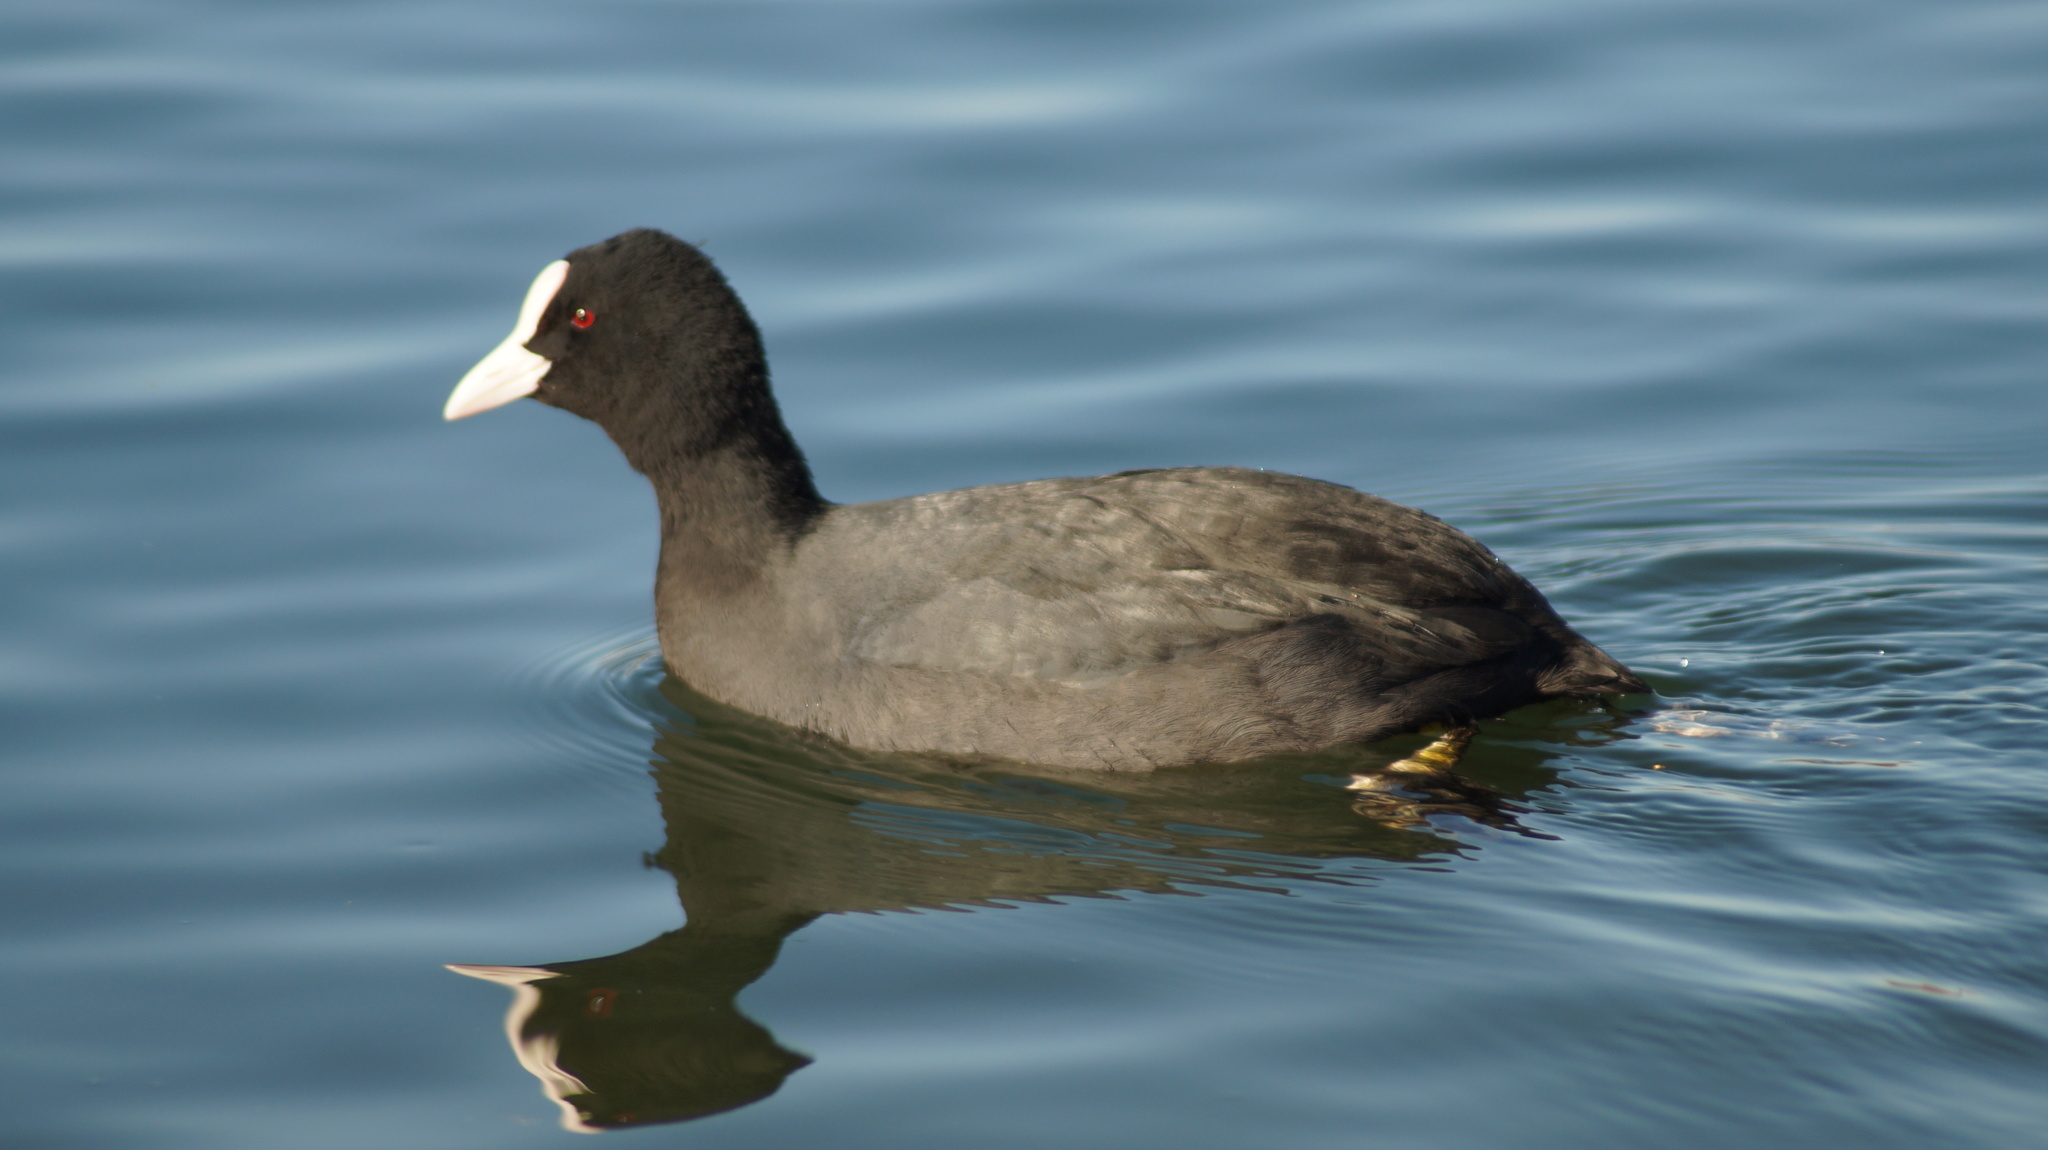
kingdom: Animalia
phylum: Chordata
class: Aves
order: Gruiformes
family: Rallidae
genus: Fulica
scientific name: Fulica atra
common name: Eurasian coot
